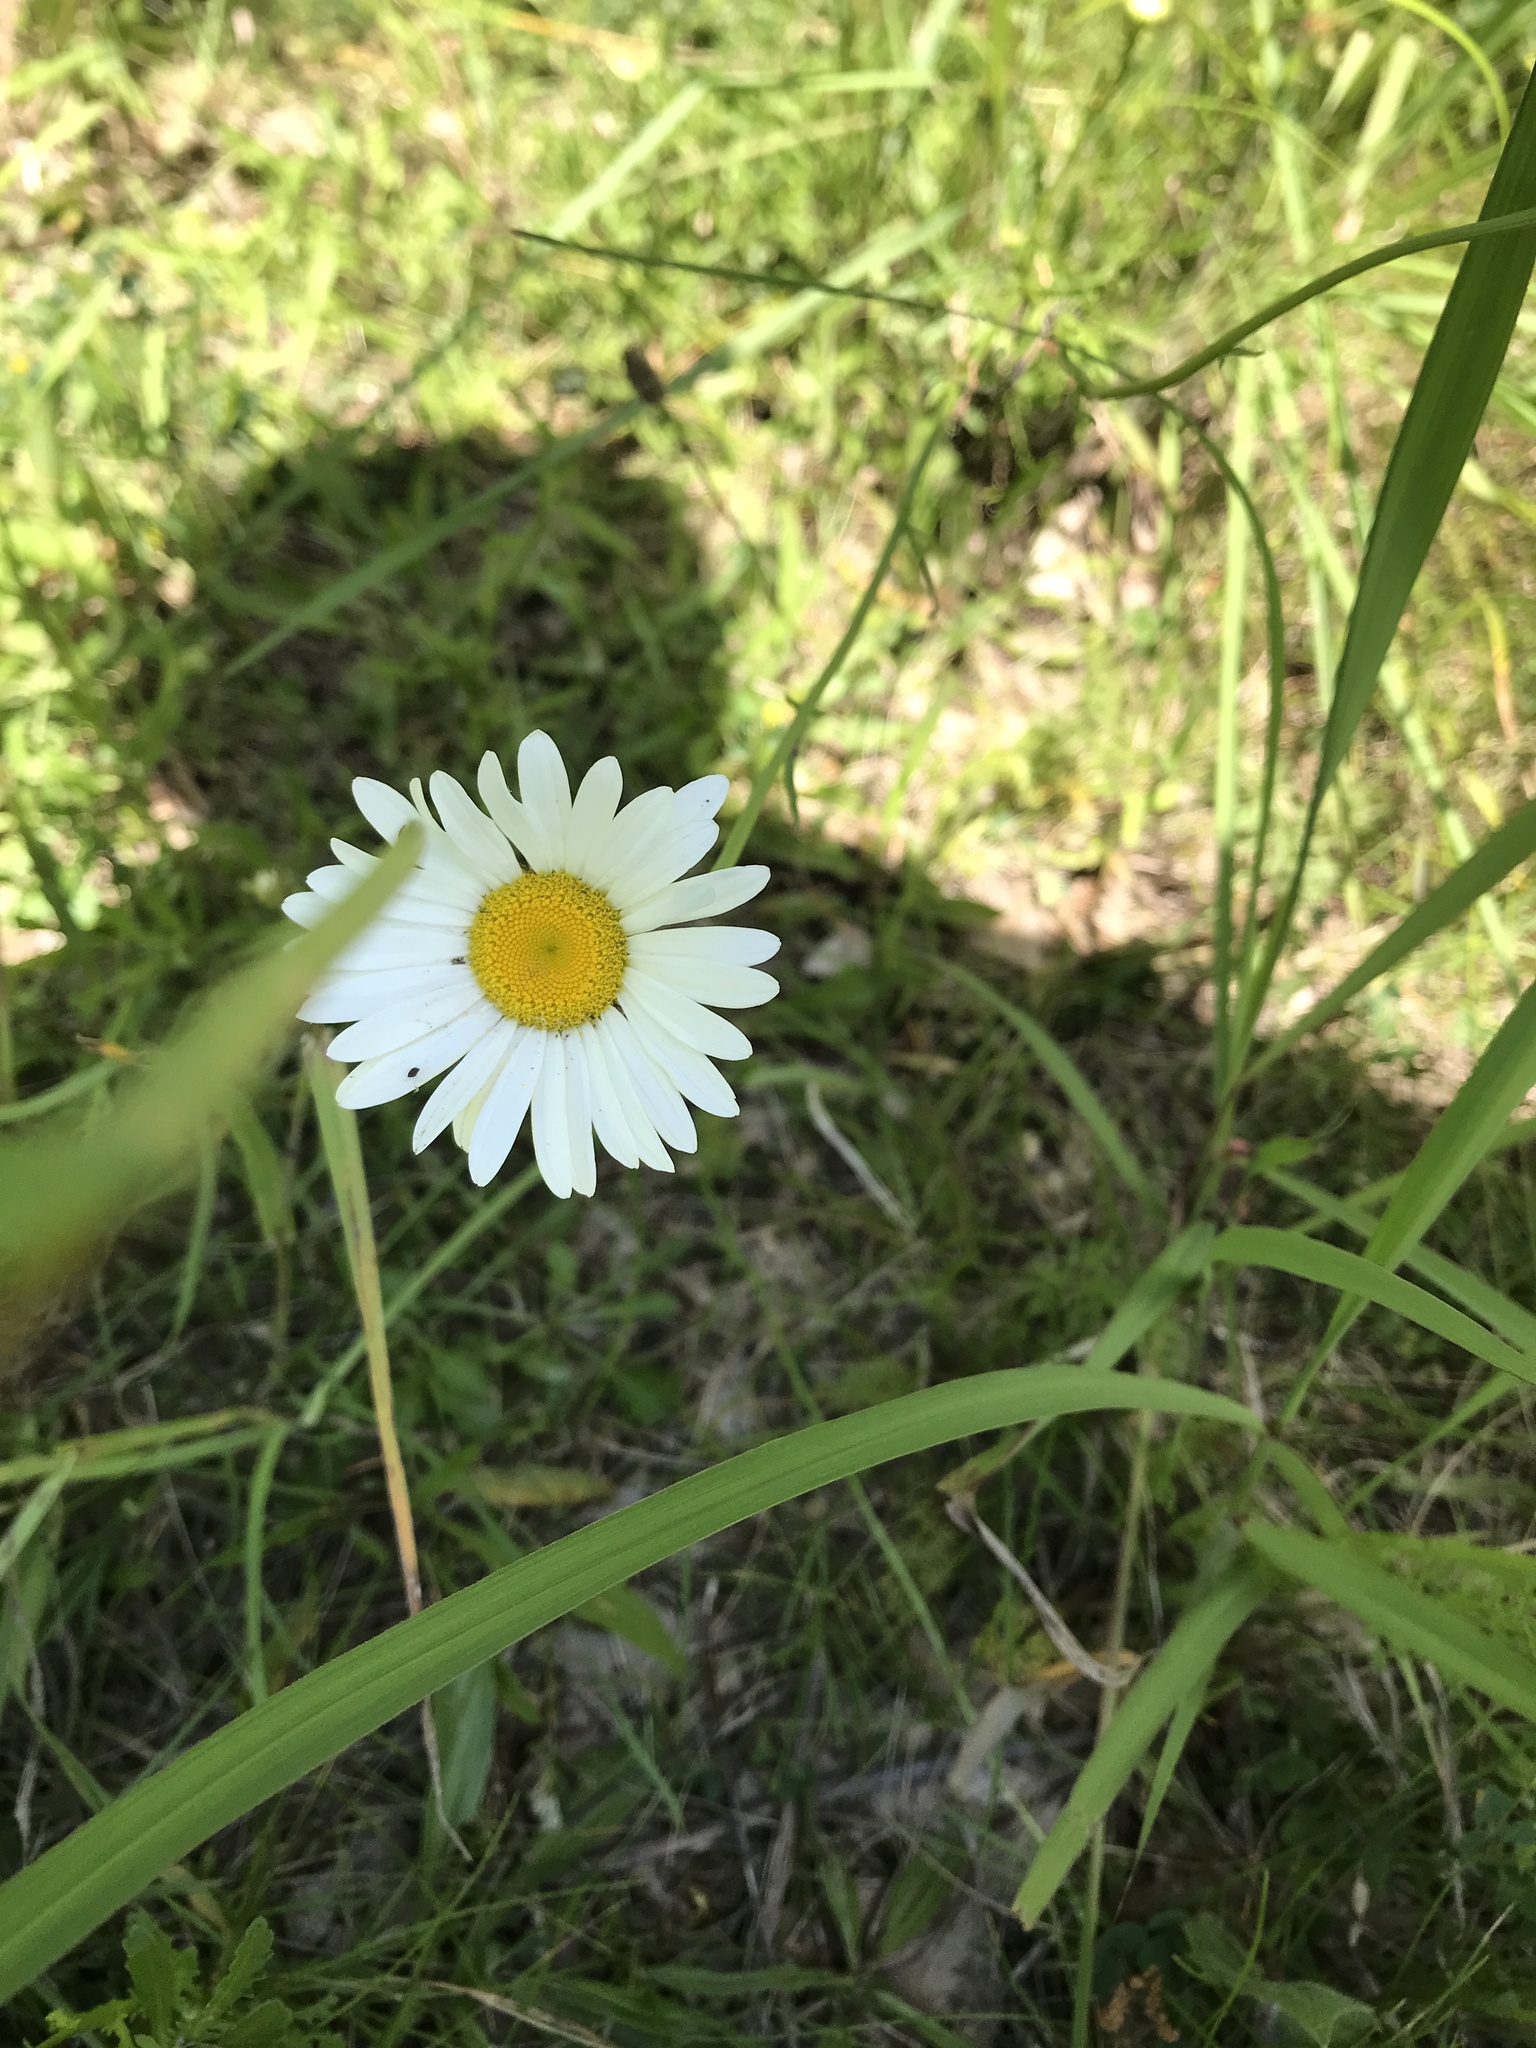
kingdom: Plantae
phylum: Tracheophyta
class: Magnoliopsida
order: Asterales
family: Asteraceae
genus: Leucanthemum
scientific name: Leucanthemum vulgare
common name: Oxeye daisy
